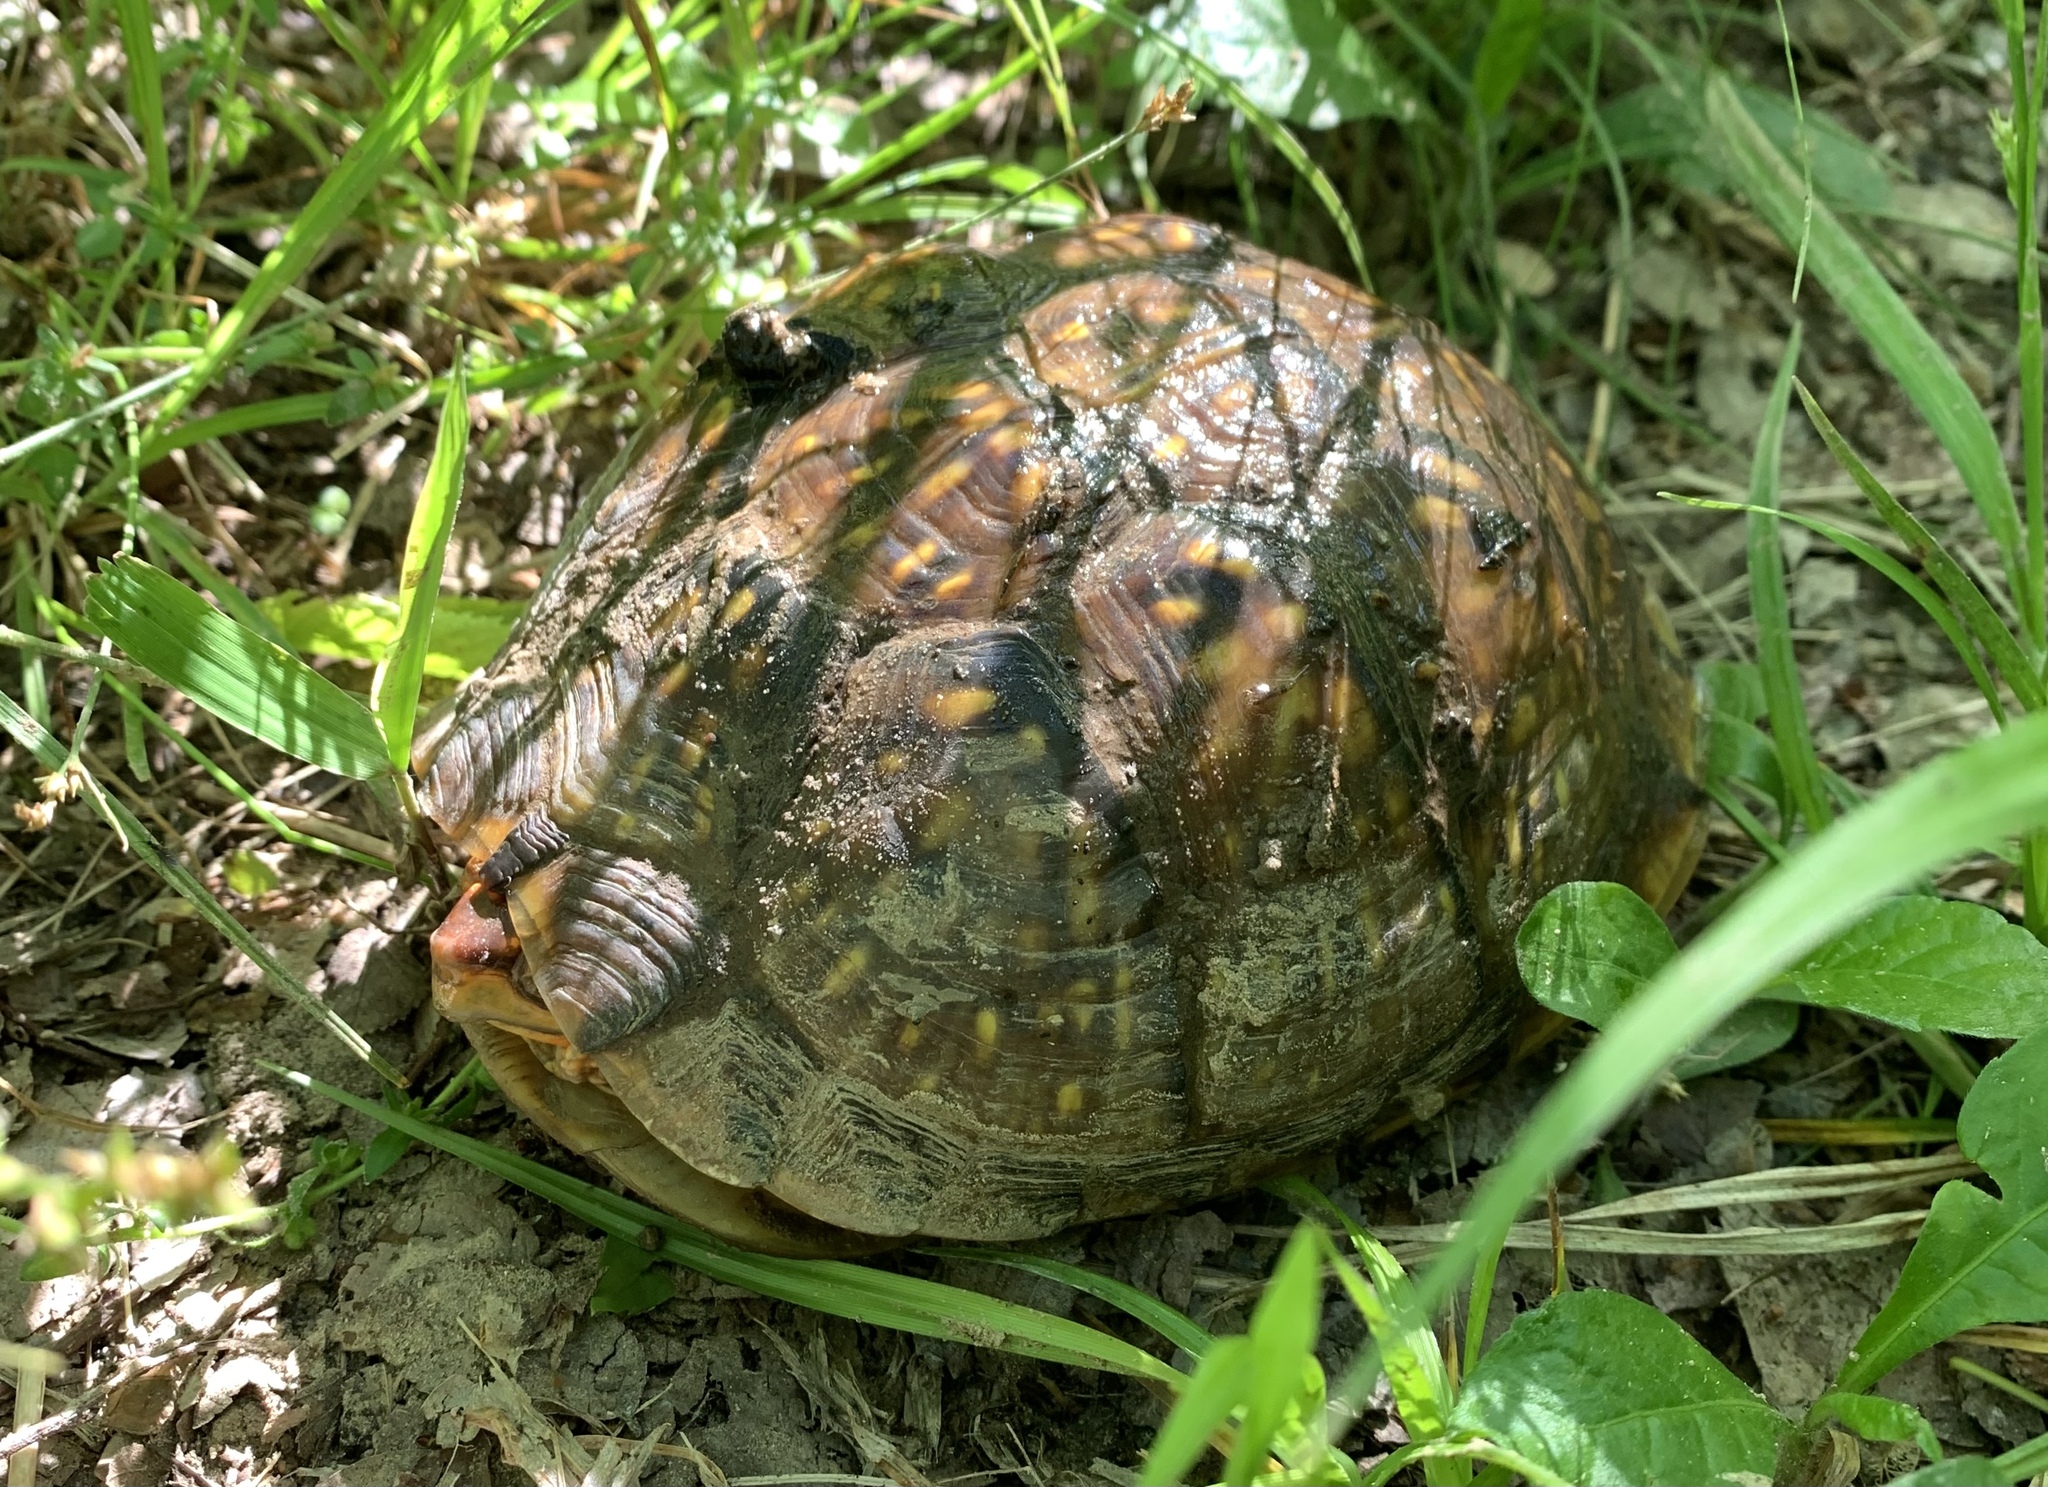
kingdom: Animalia
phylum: Chordata
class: Testudines
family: Emydidae
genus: Terrapene
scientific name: Terrapene carolina
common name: Common box turtle
